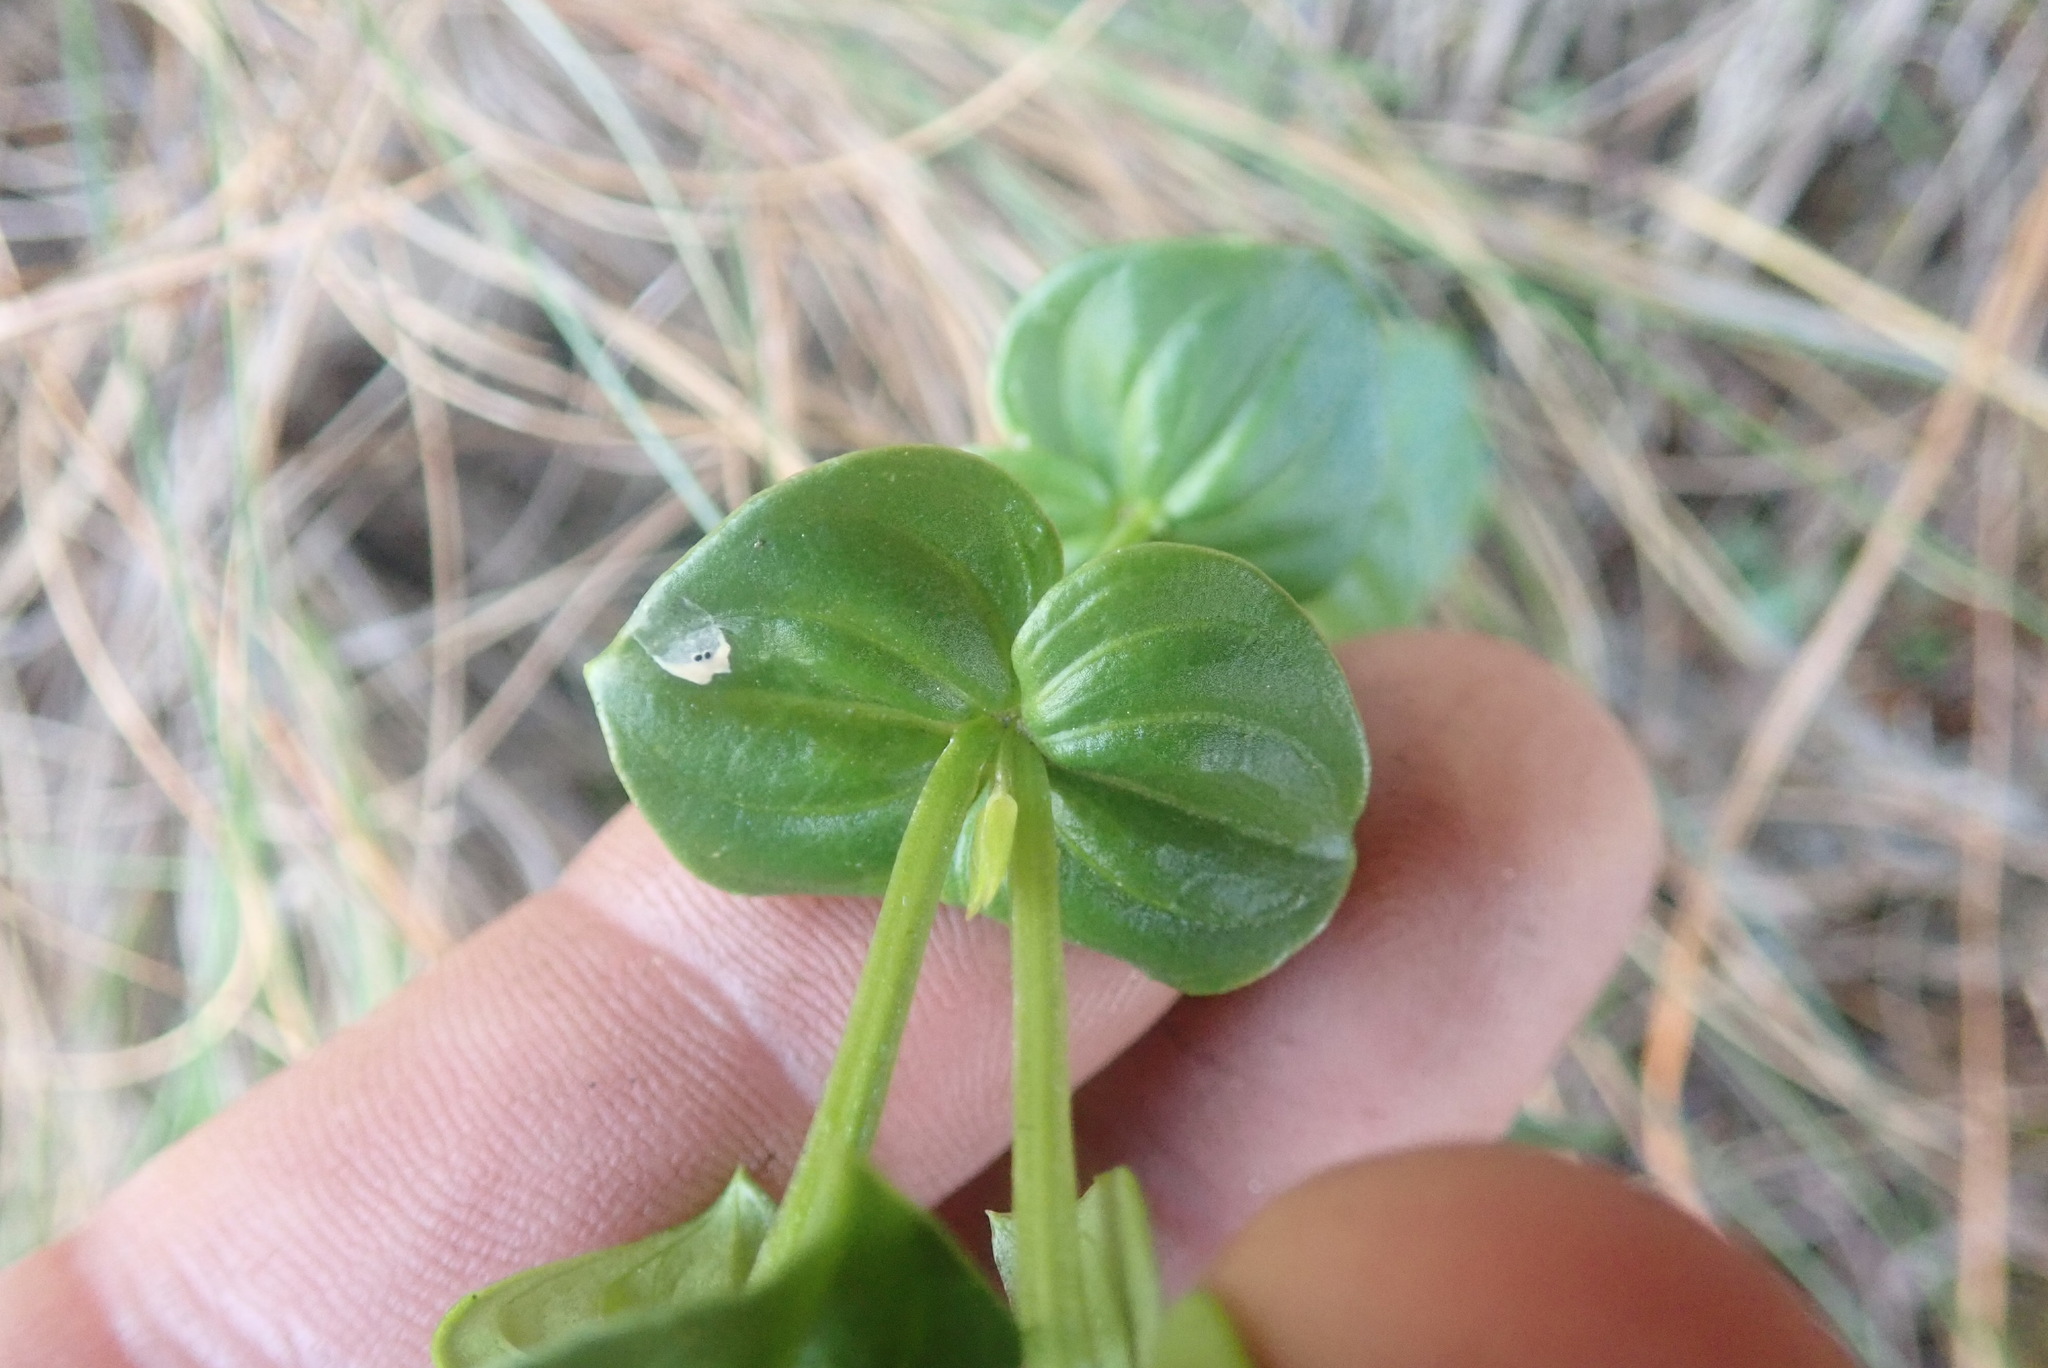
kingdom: Plantae
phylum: Tracheophyta
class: Magnoliopsida
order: Gentianales
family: Gentianaceae
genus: Sebaea
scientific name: Sebaea macrophylla
